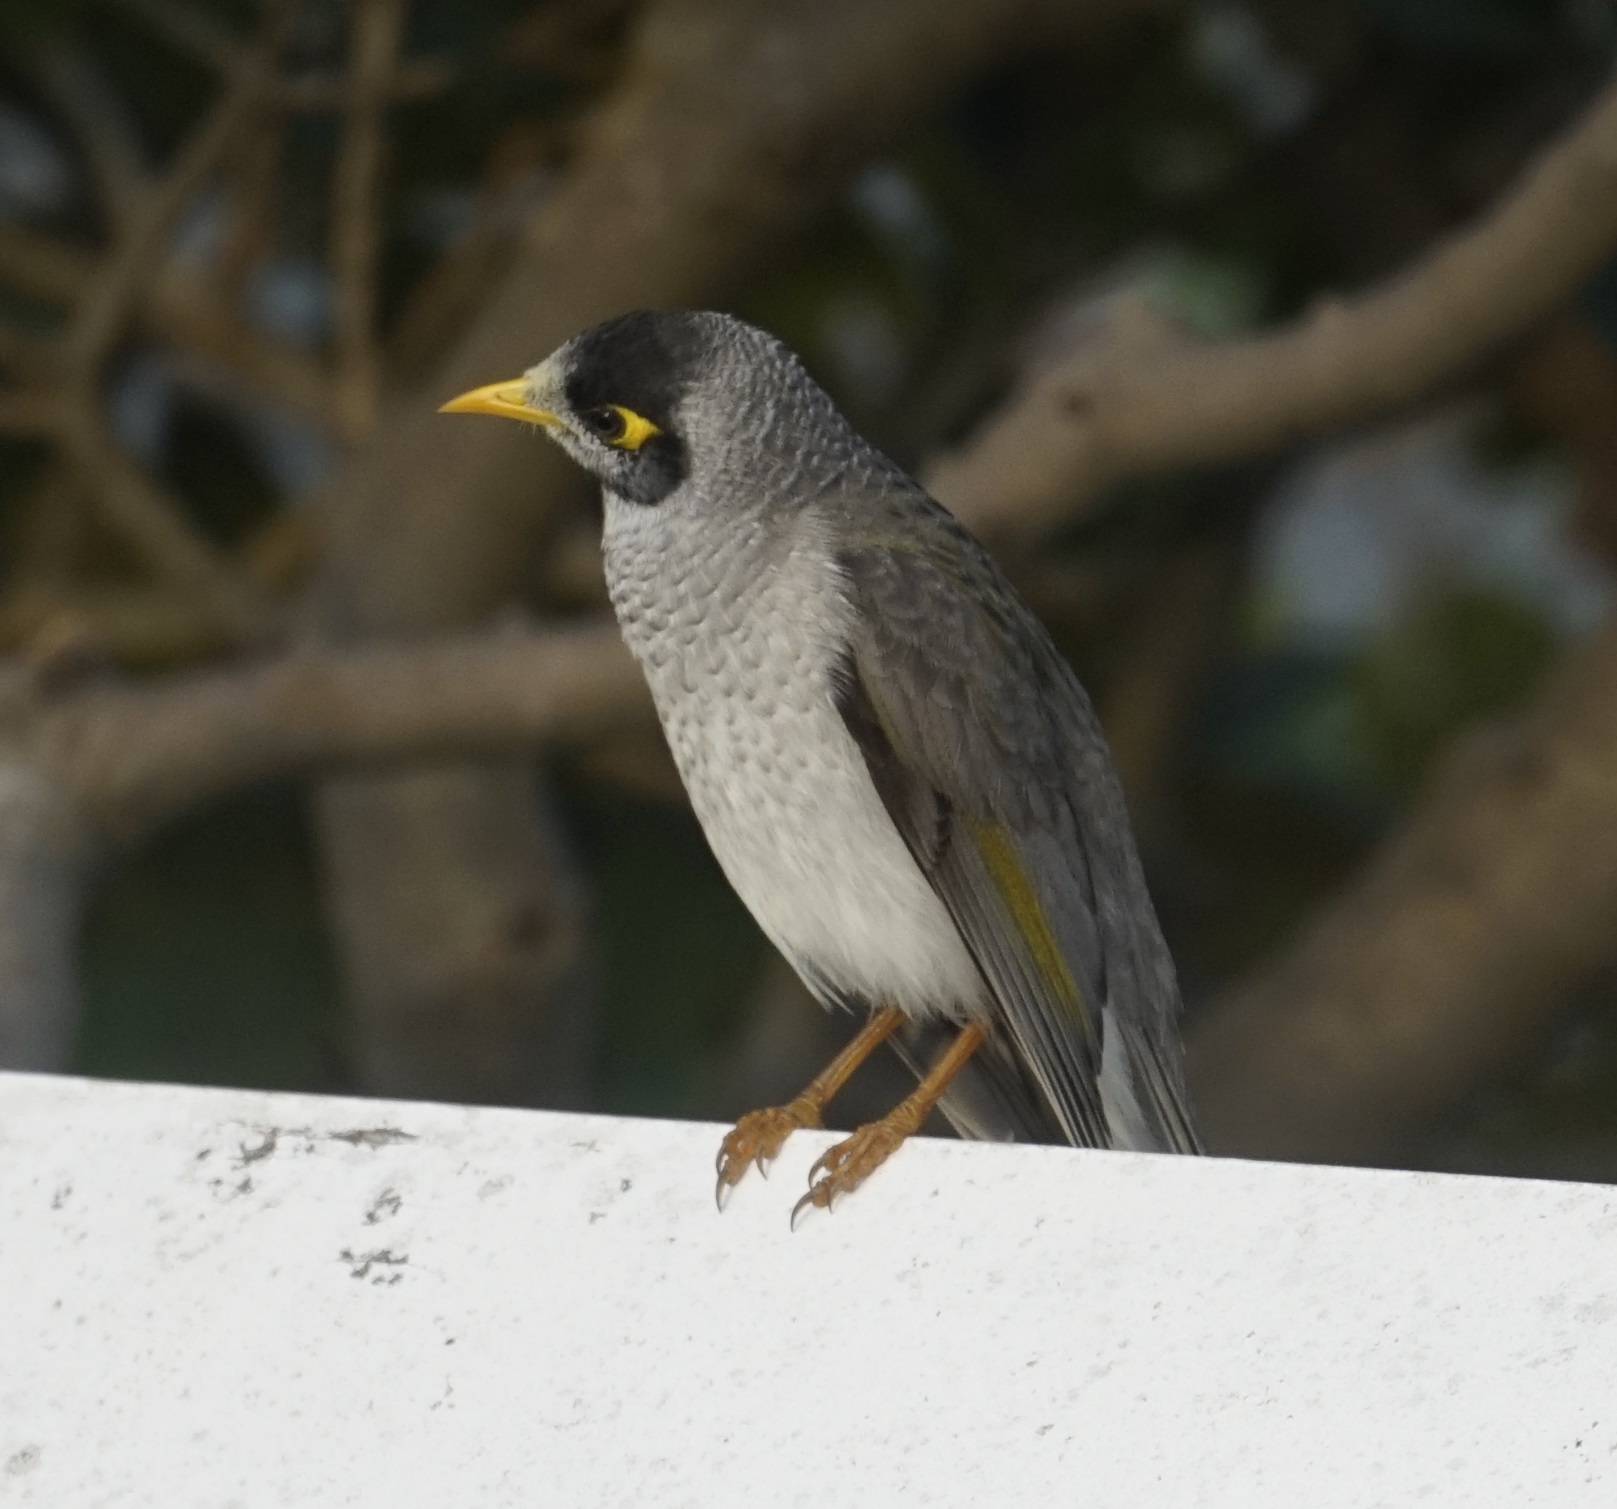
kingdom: Animalia
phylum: Chordata
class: Aves
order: Passeriformes
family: Meliphagidae
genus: Manorina
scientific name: Manorina melanocephala
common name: Noisy miner
